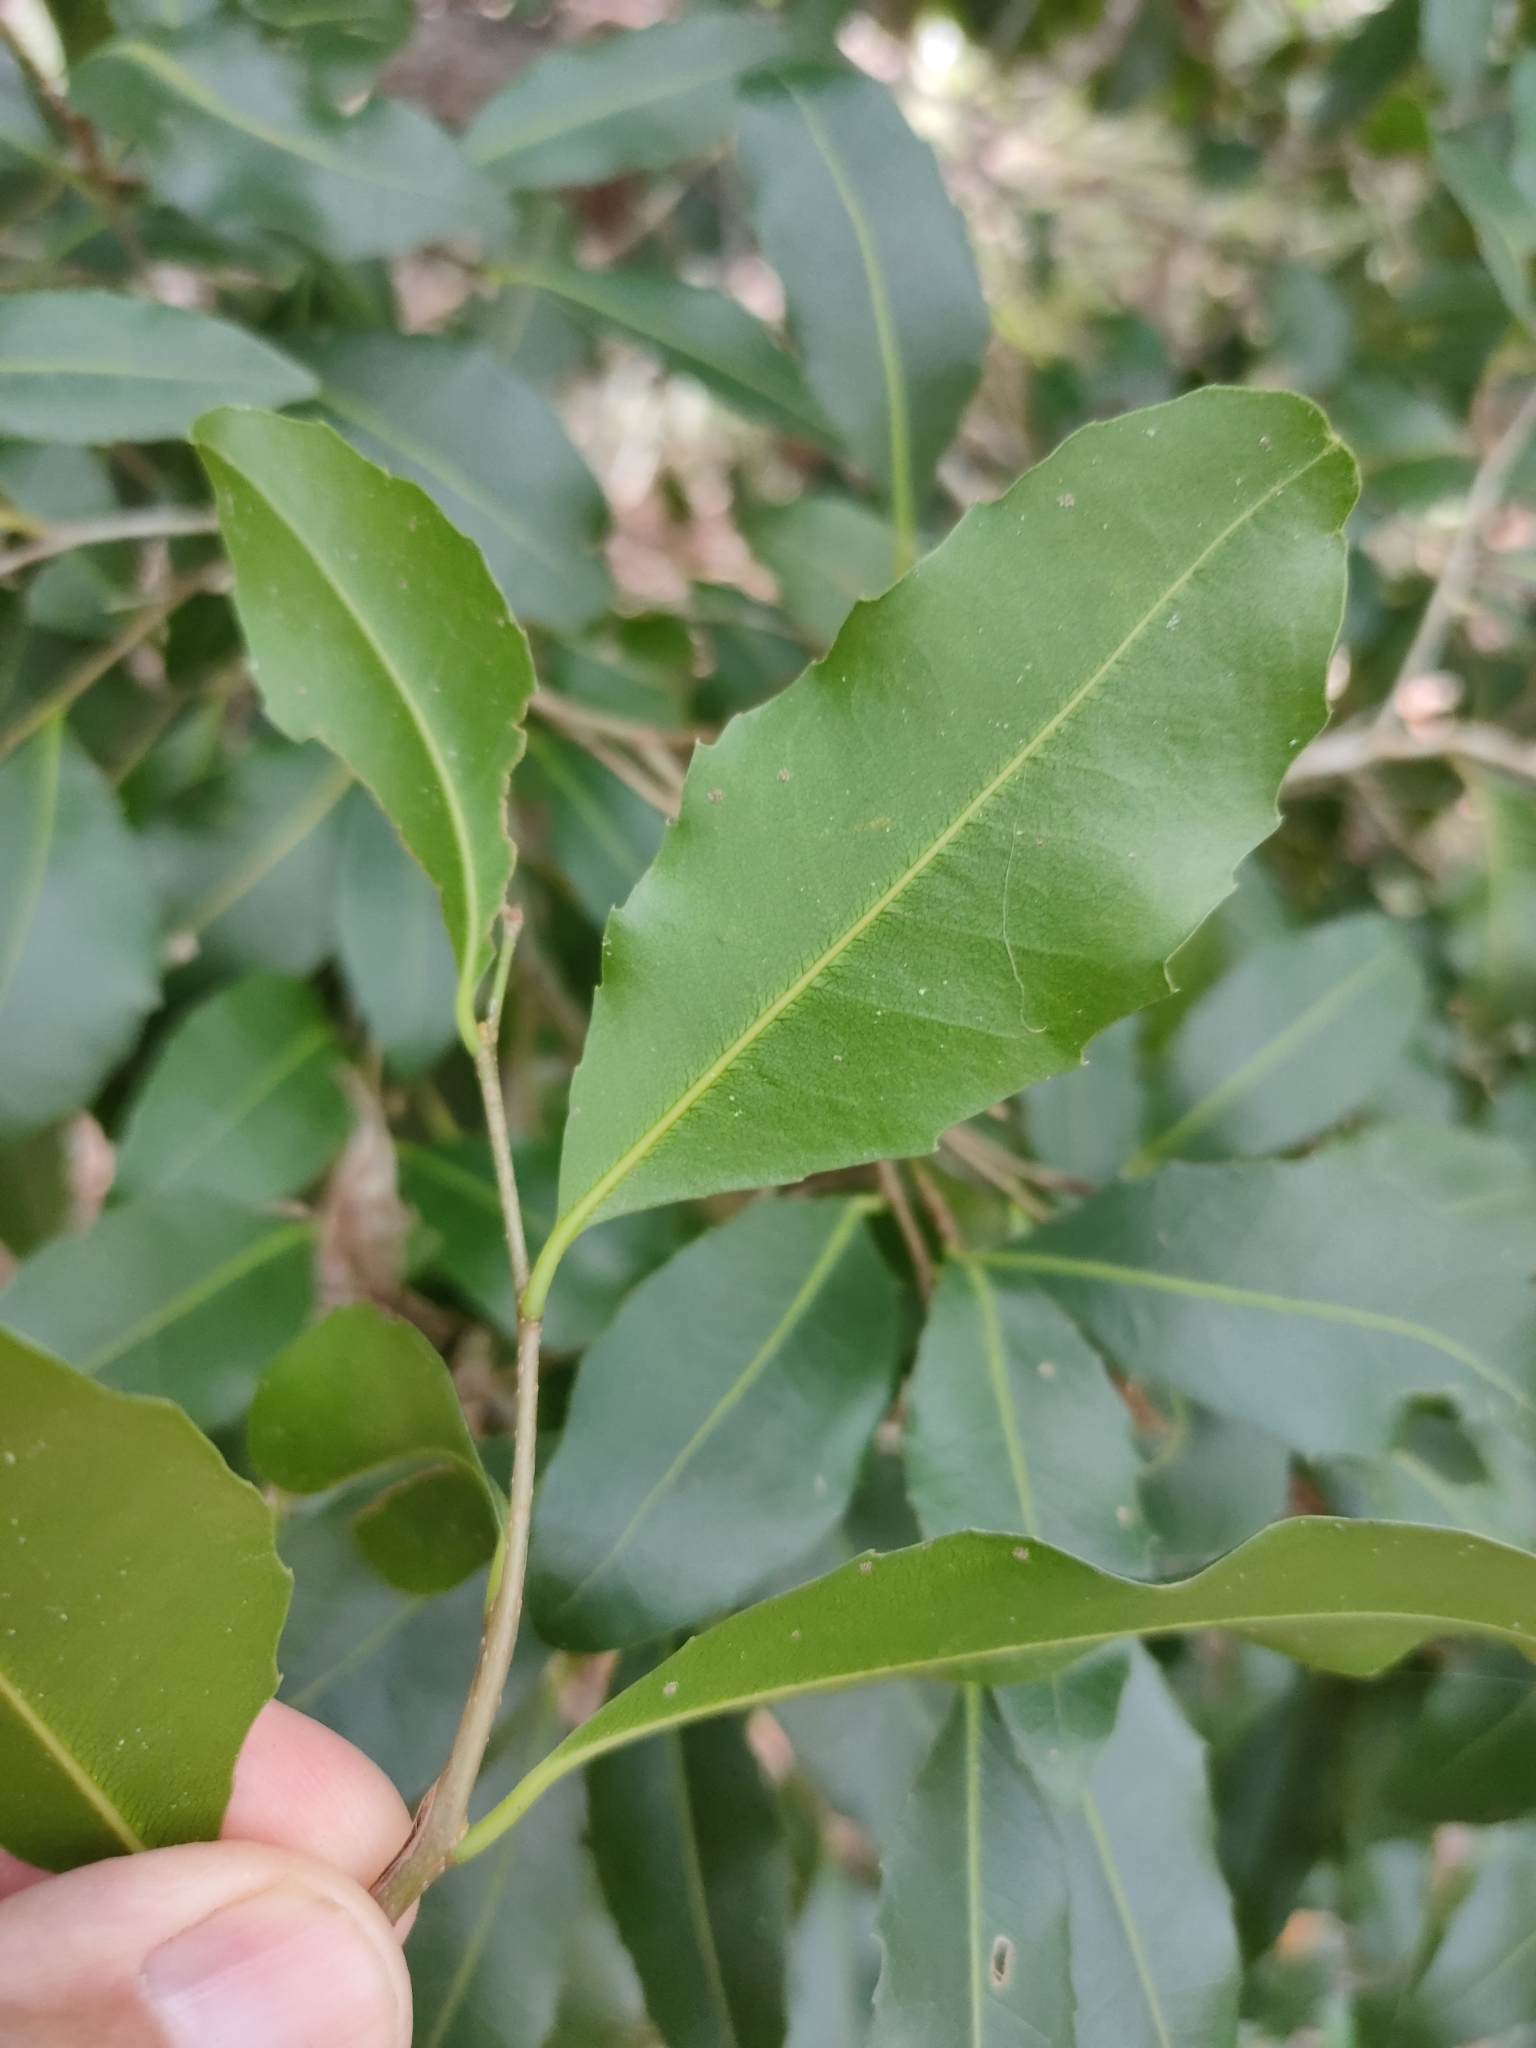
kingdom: Plantae
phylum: Tracheophyta
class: Magnoliopsida
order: Malpighiales
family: Putranjivaceae
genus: Drypetes
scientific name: Drypetes deplanchei
